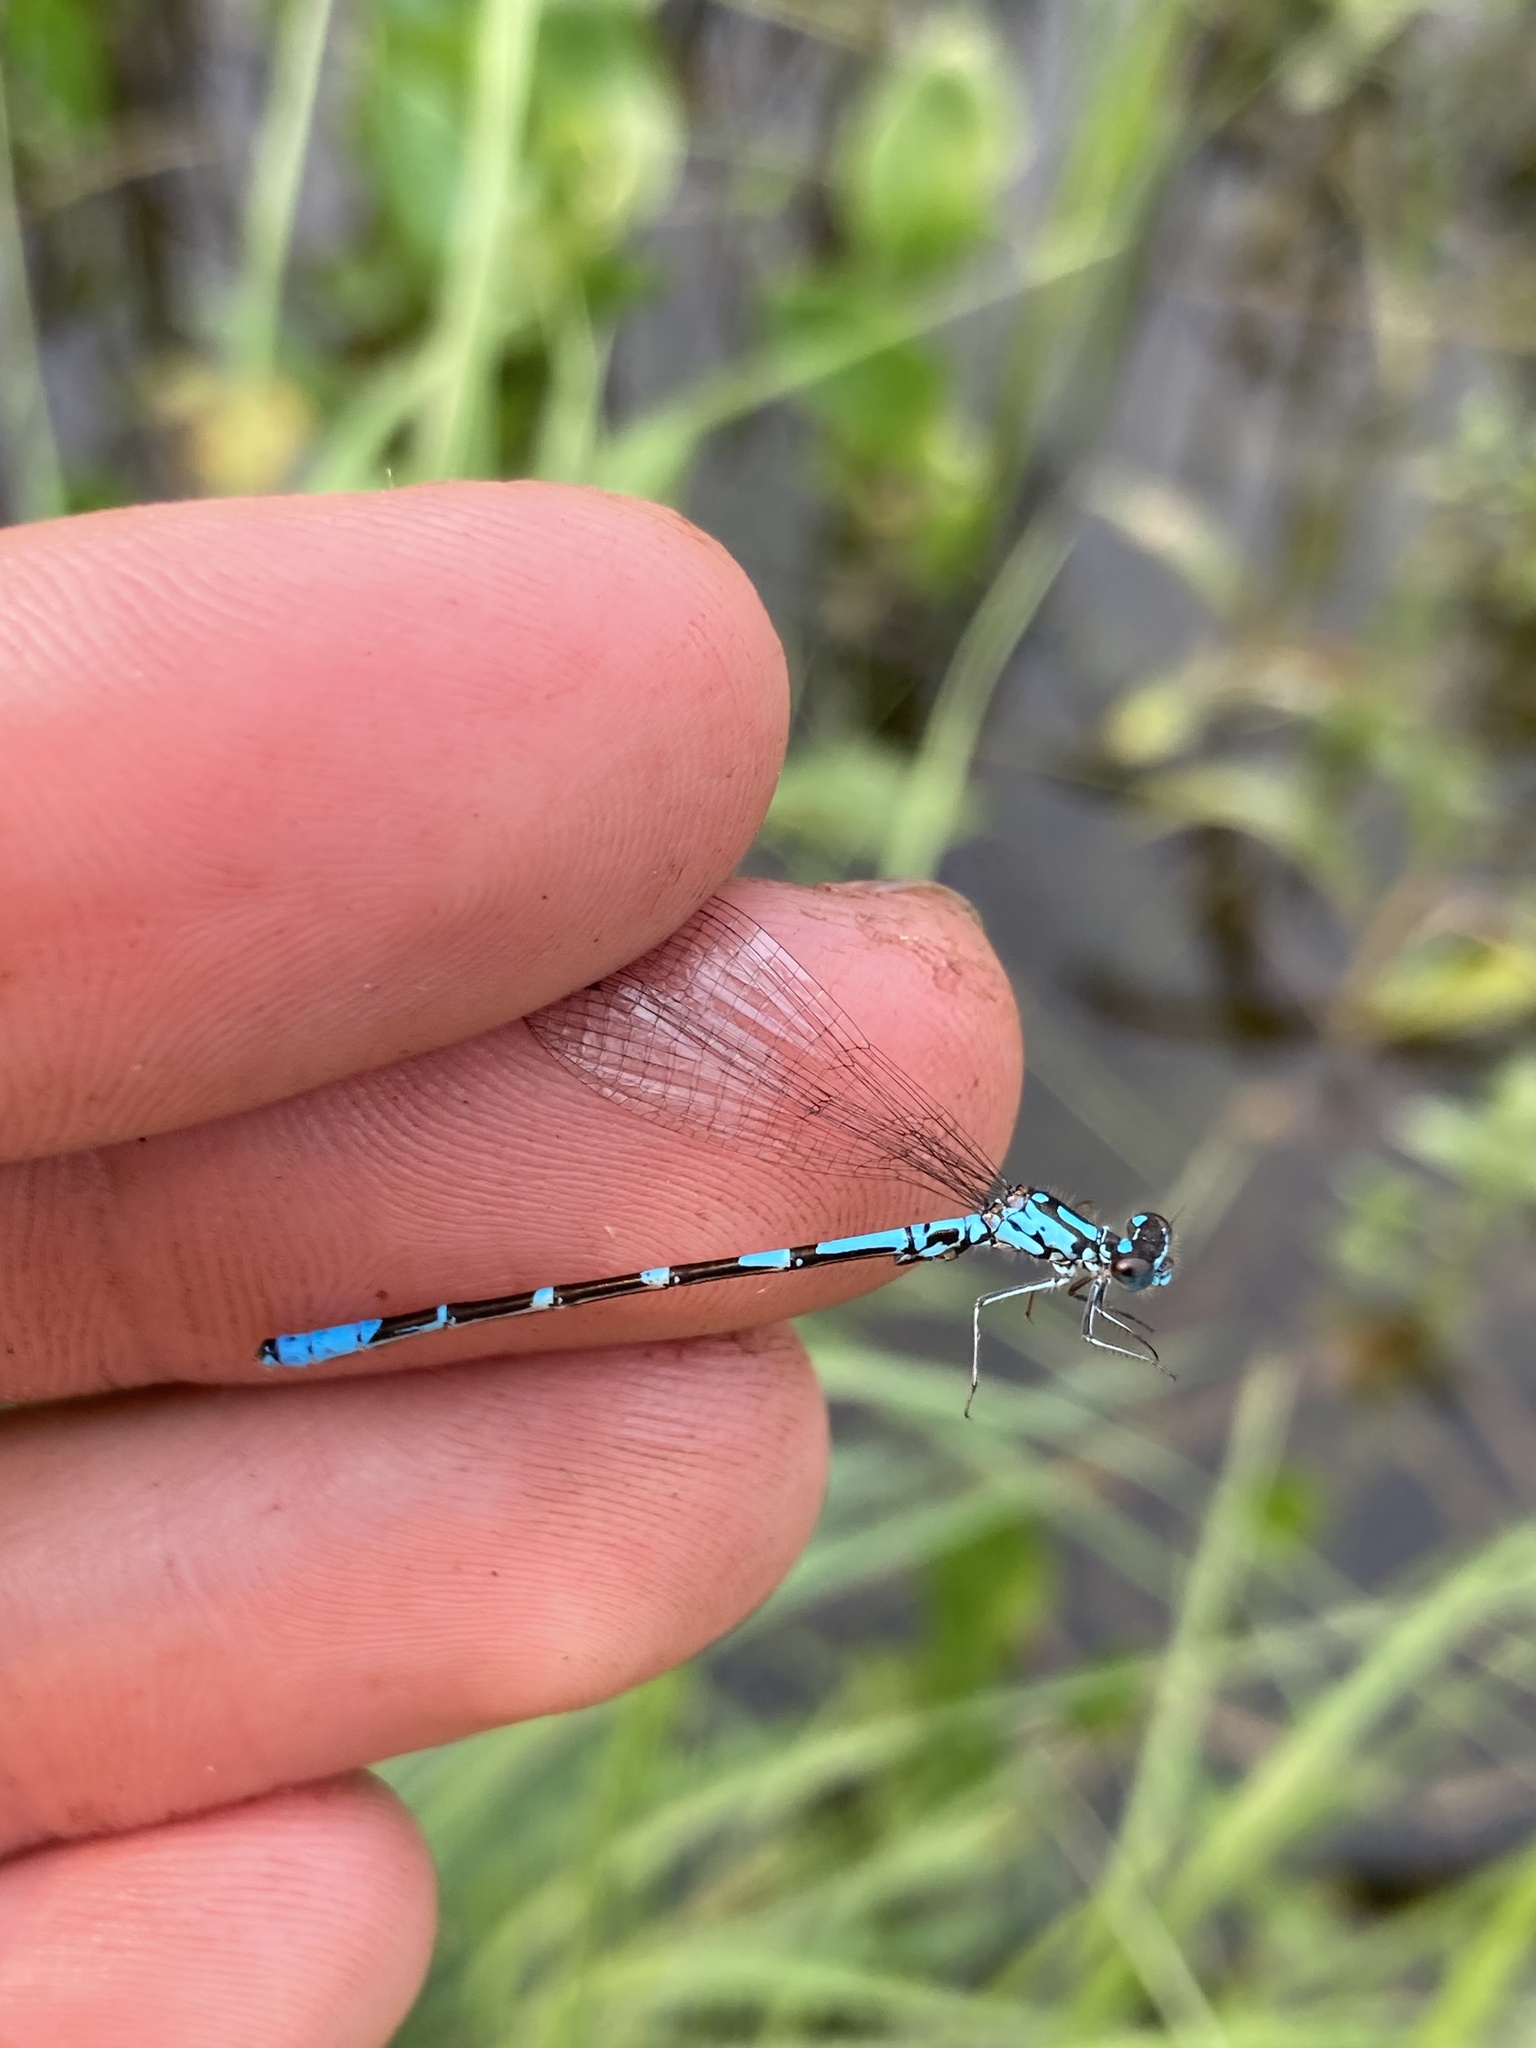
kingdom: Animalia
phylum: Arthropoda
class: Insecta
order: Odonata
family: Coenagrionidae
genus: Coenagrion
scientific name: Coenagrion interrogatum
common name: Subarctic bluet
